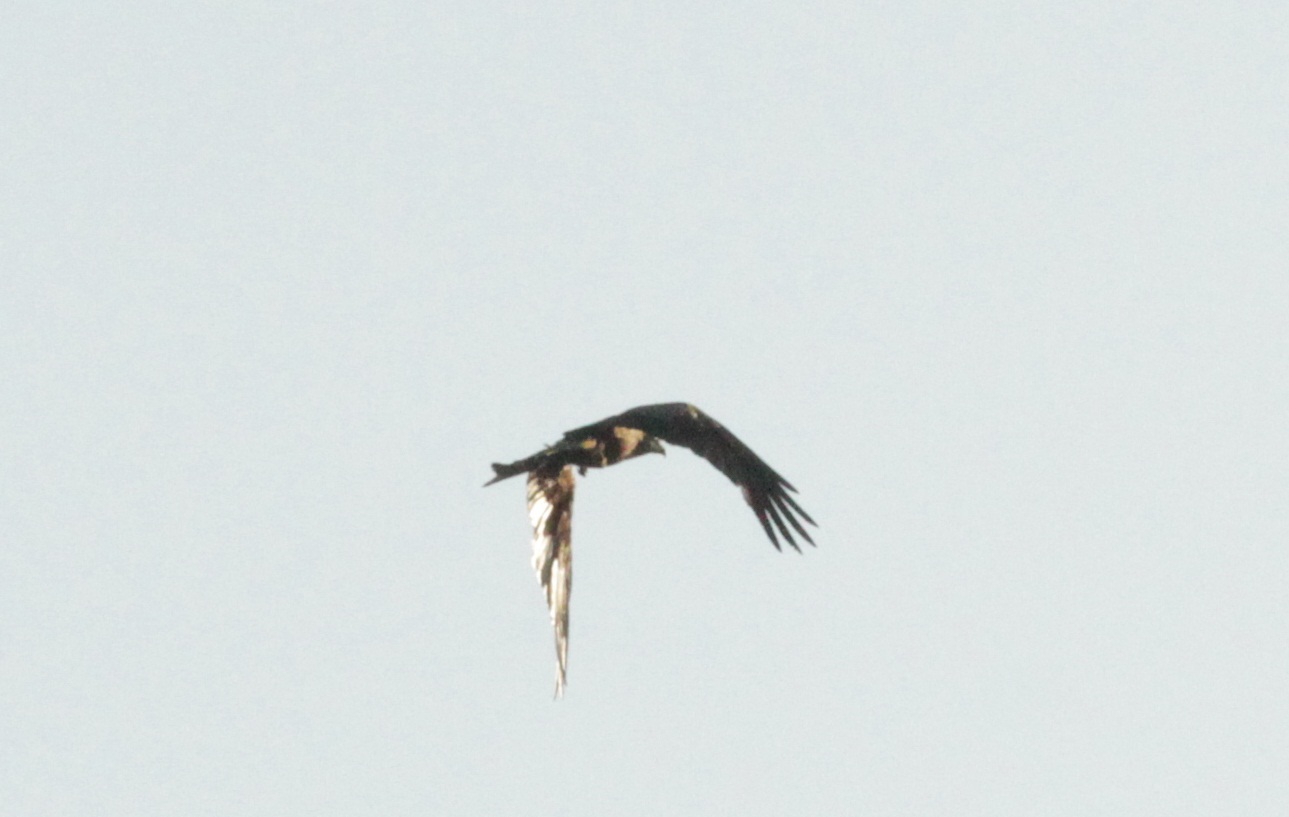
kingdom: Animalia
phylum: Chordata
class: Aves
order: Accipitriformes
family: Accipitridae
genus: Milvus
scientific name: Milvus milvus
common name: Red kite
